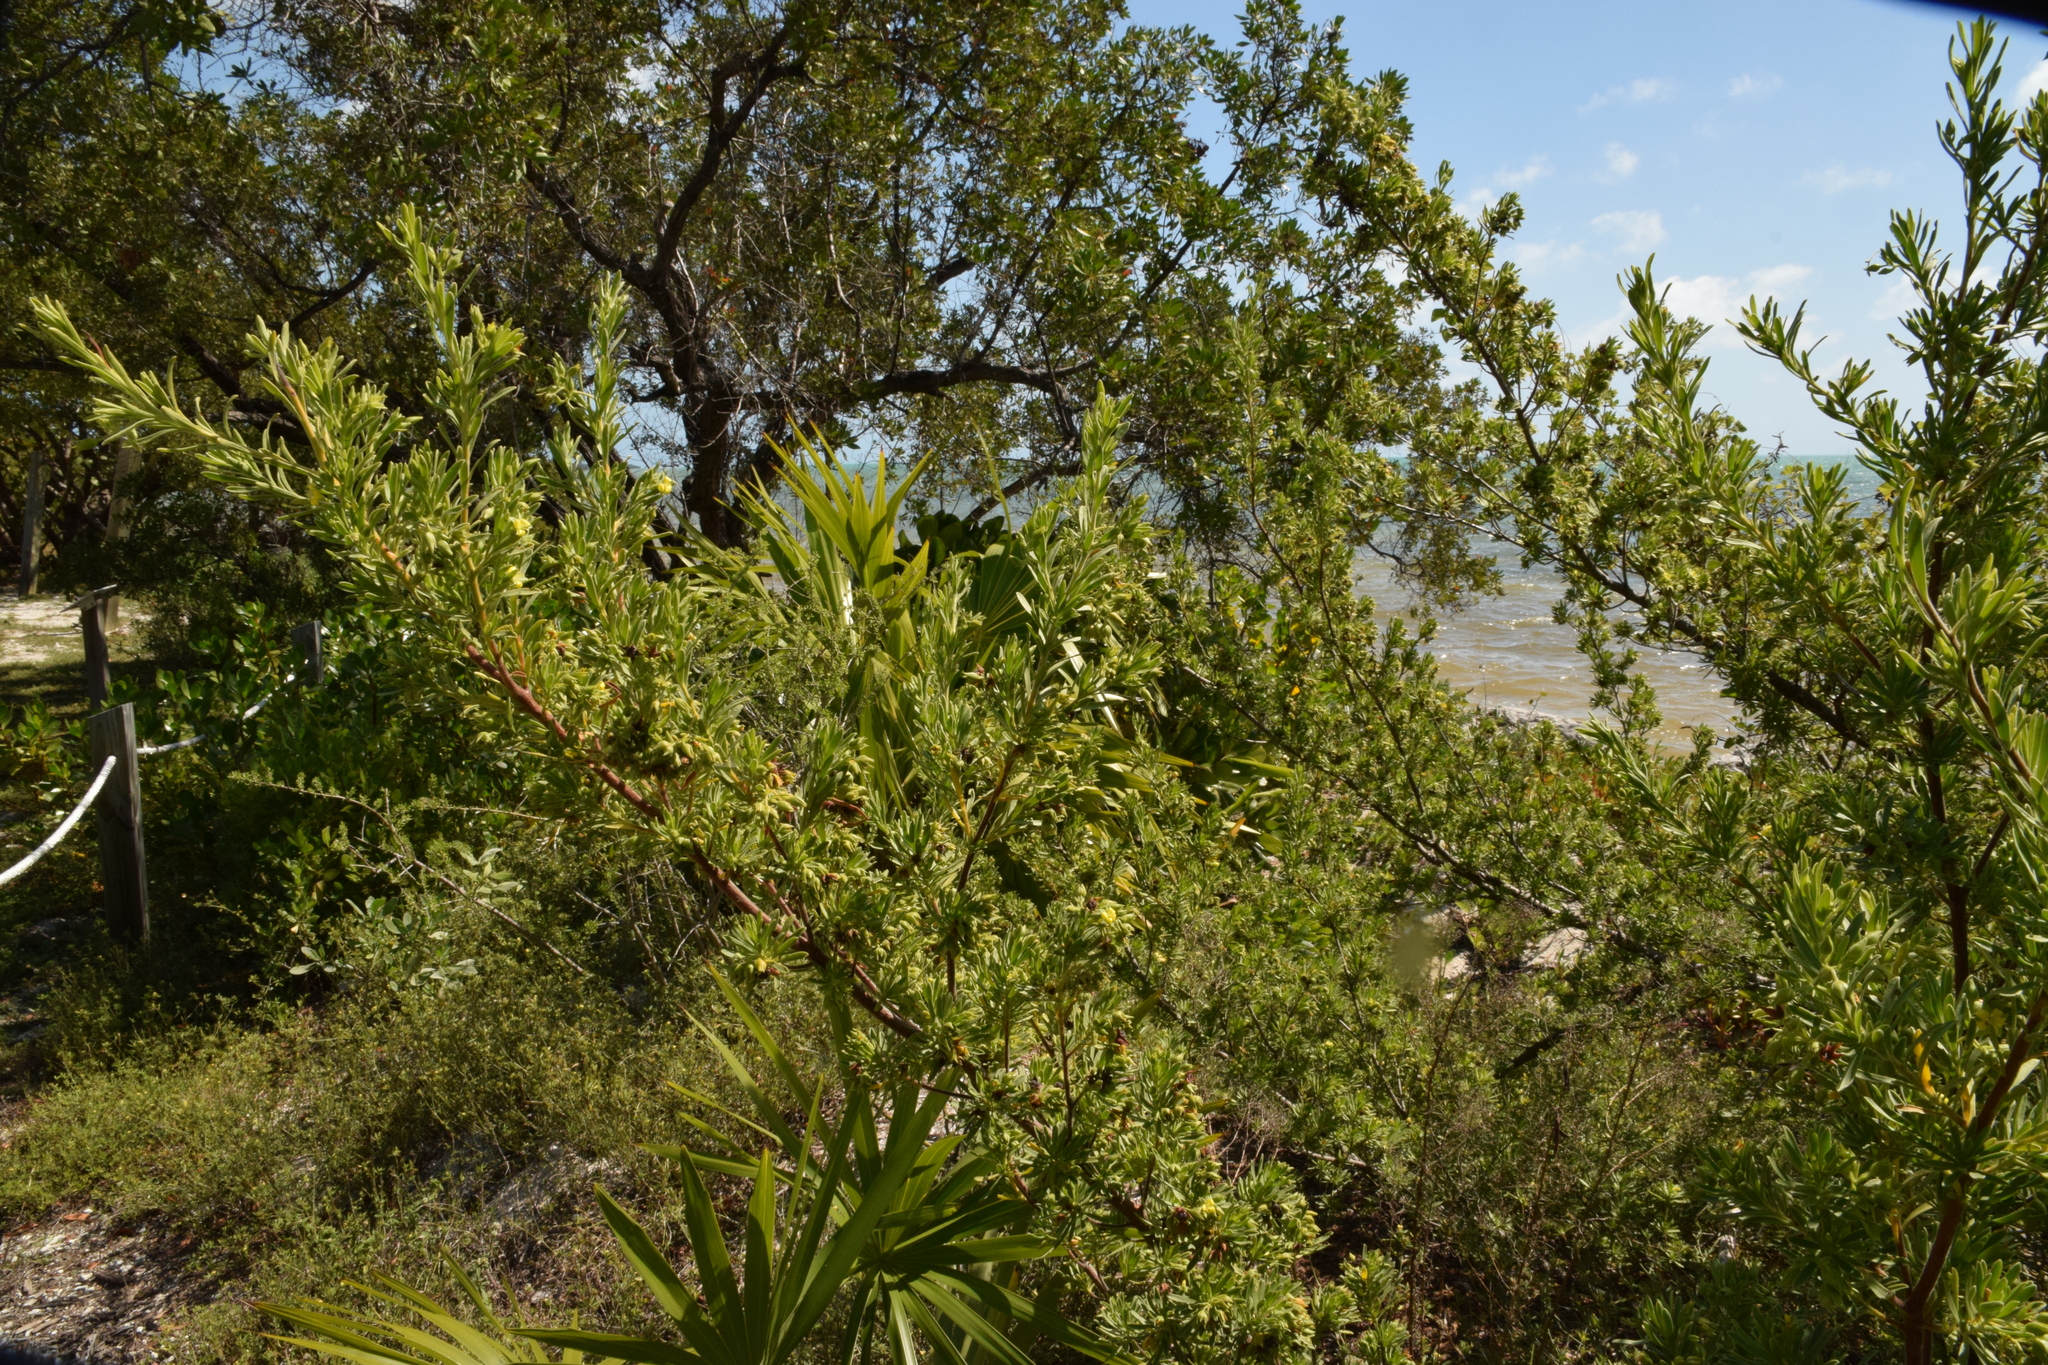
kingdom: Plantae
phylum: Tracheophyta
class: Magnoliopsida
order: Fabales
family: Surianaceae
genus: Suriana
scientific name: Suriana maritima
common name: Bay-cedar
